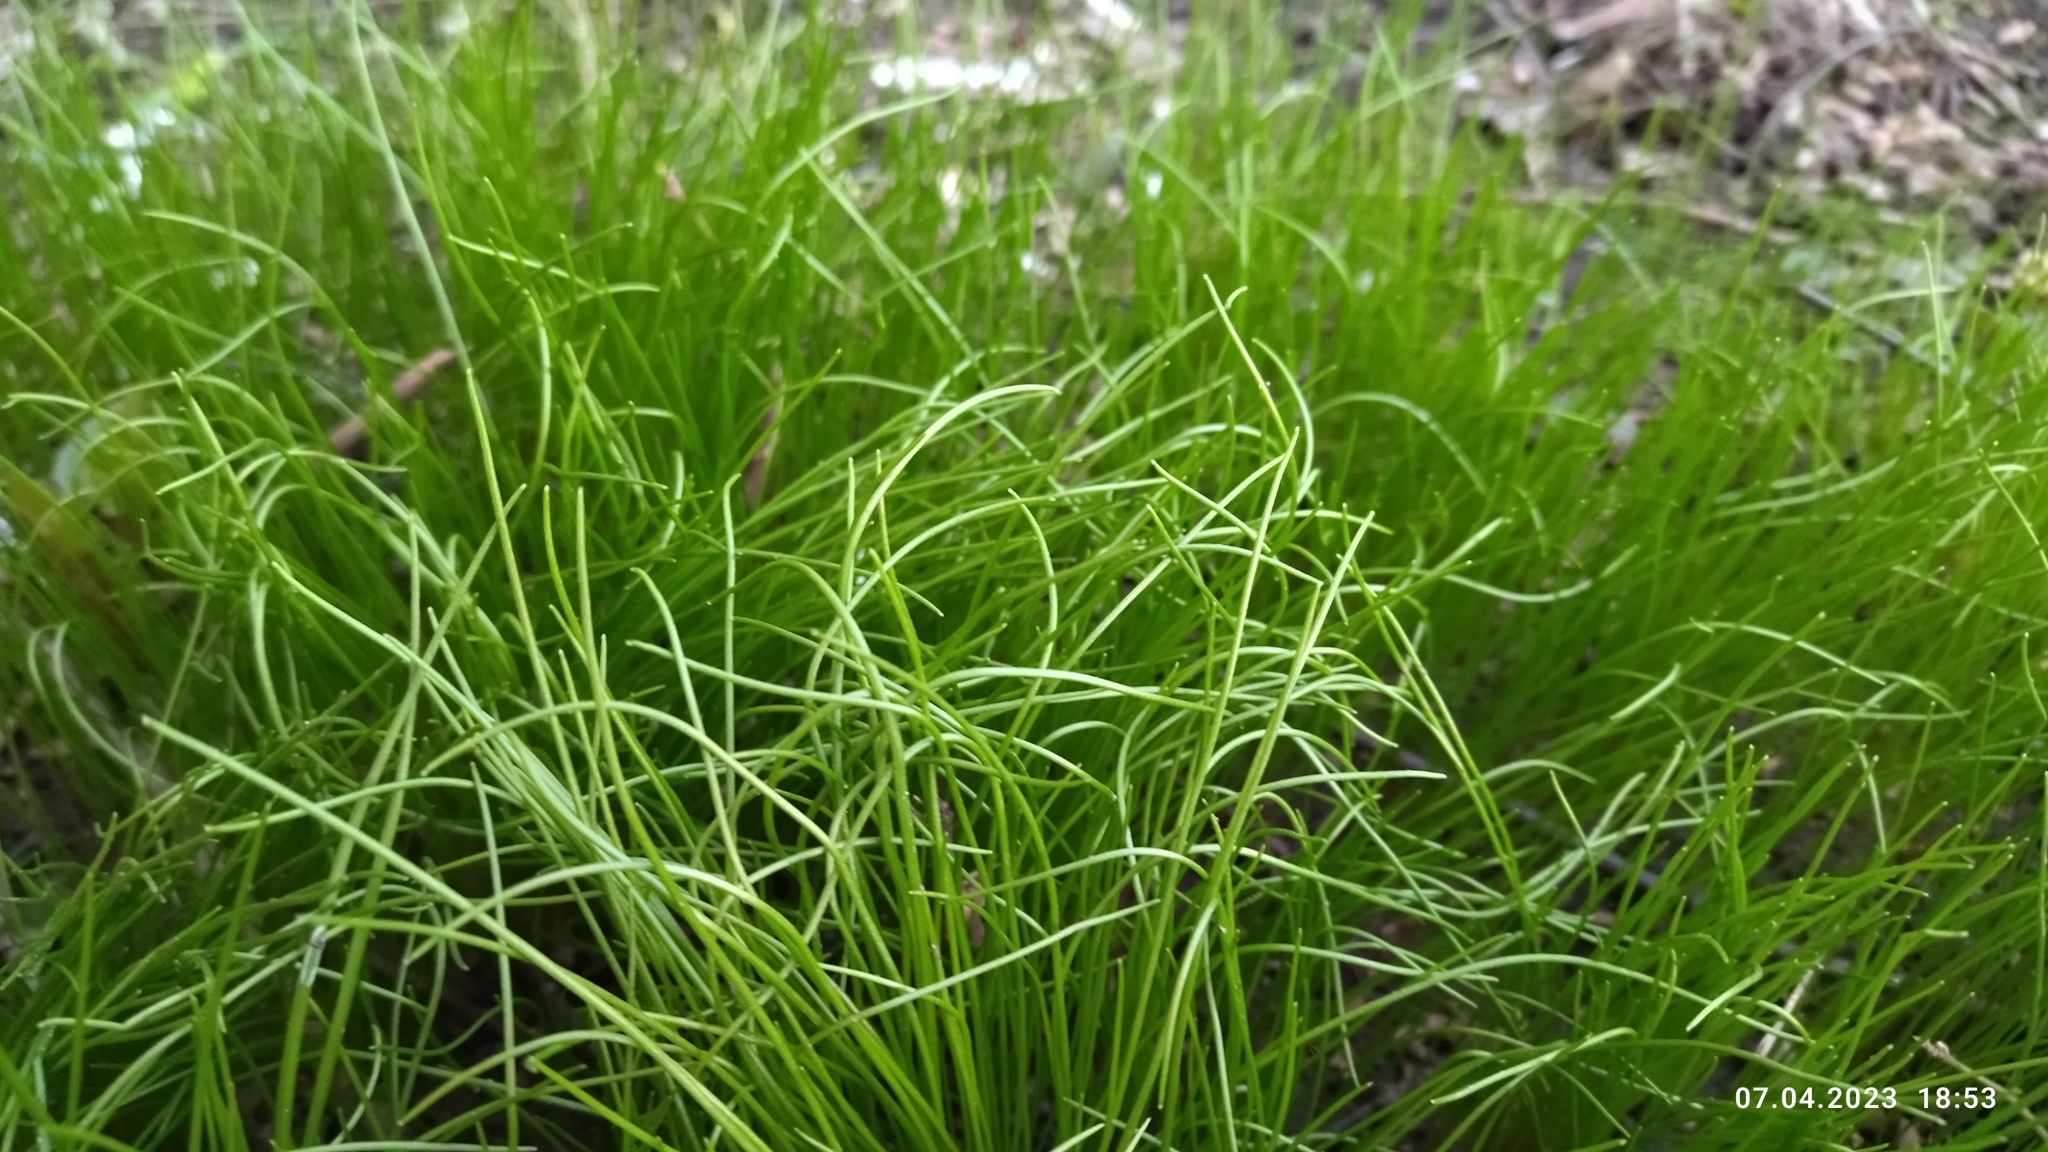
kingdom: Plantae
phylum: Tracheophyta
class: Liliopsida
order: Liliales
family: Liliaceae
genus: Gagea
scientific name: Gagea minima
